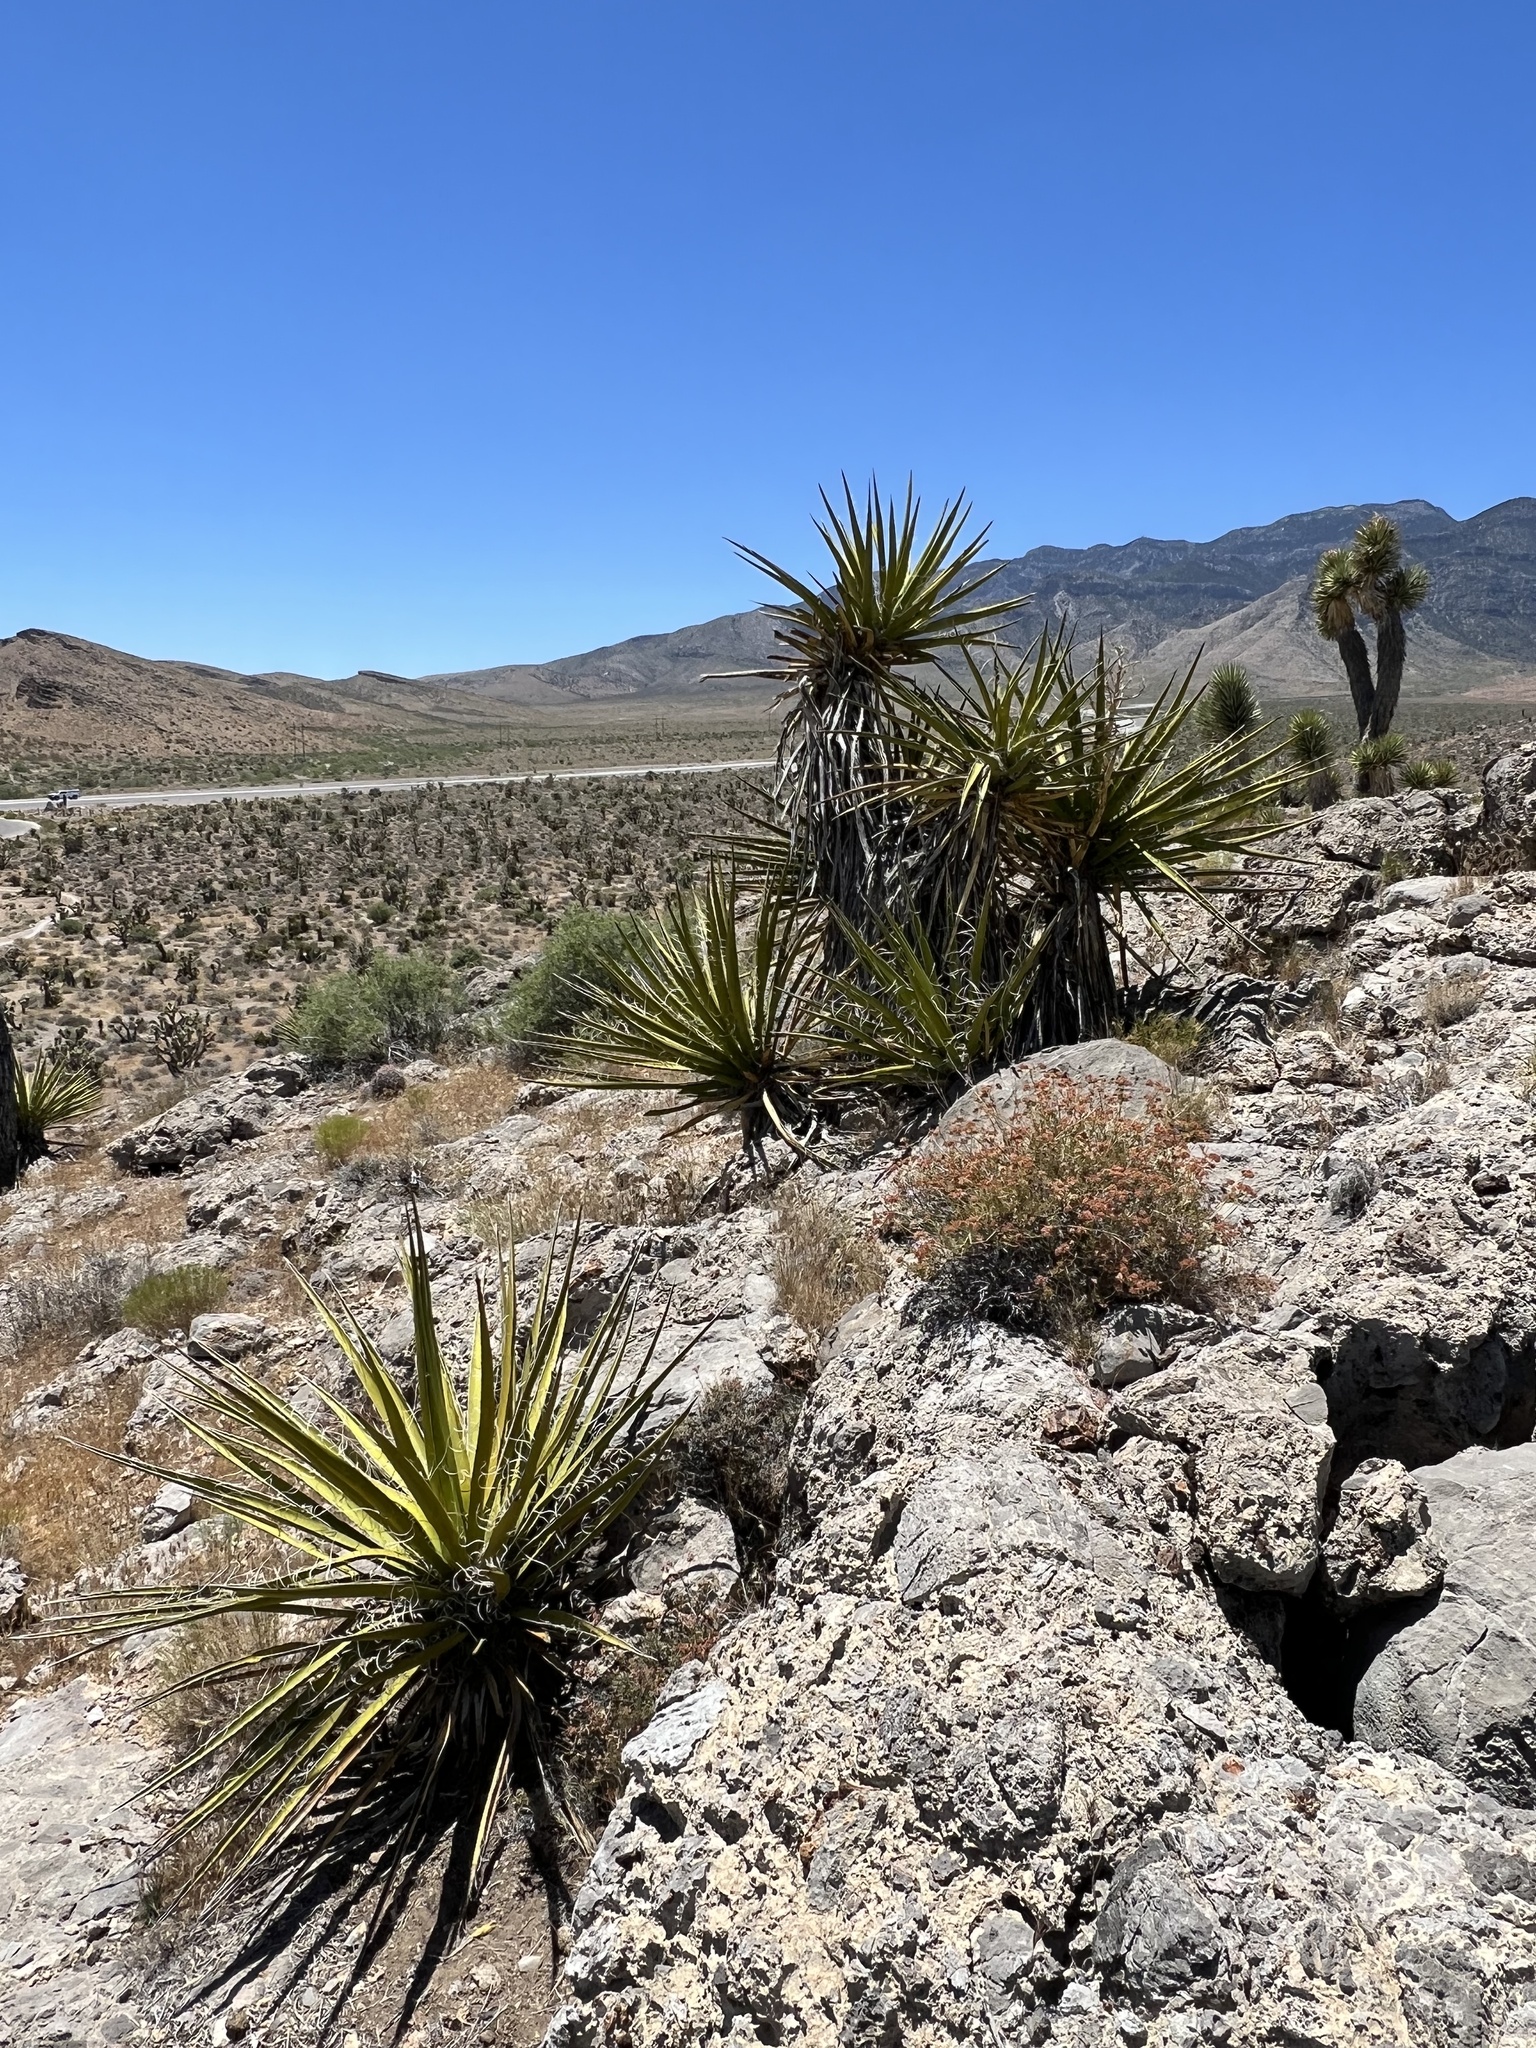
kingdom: Plantae
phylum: Tracheophyta
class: Liliopsida
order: Asparagales
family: Asparagaceae
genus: Yucca
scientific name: Yucca schidigera
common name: Mojave yucca
